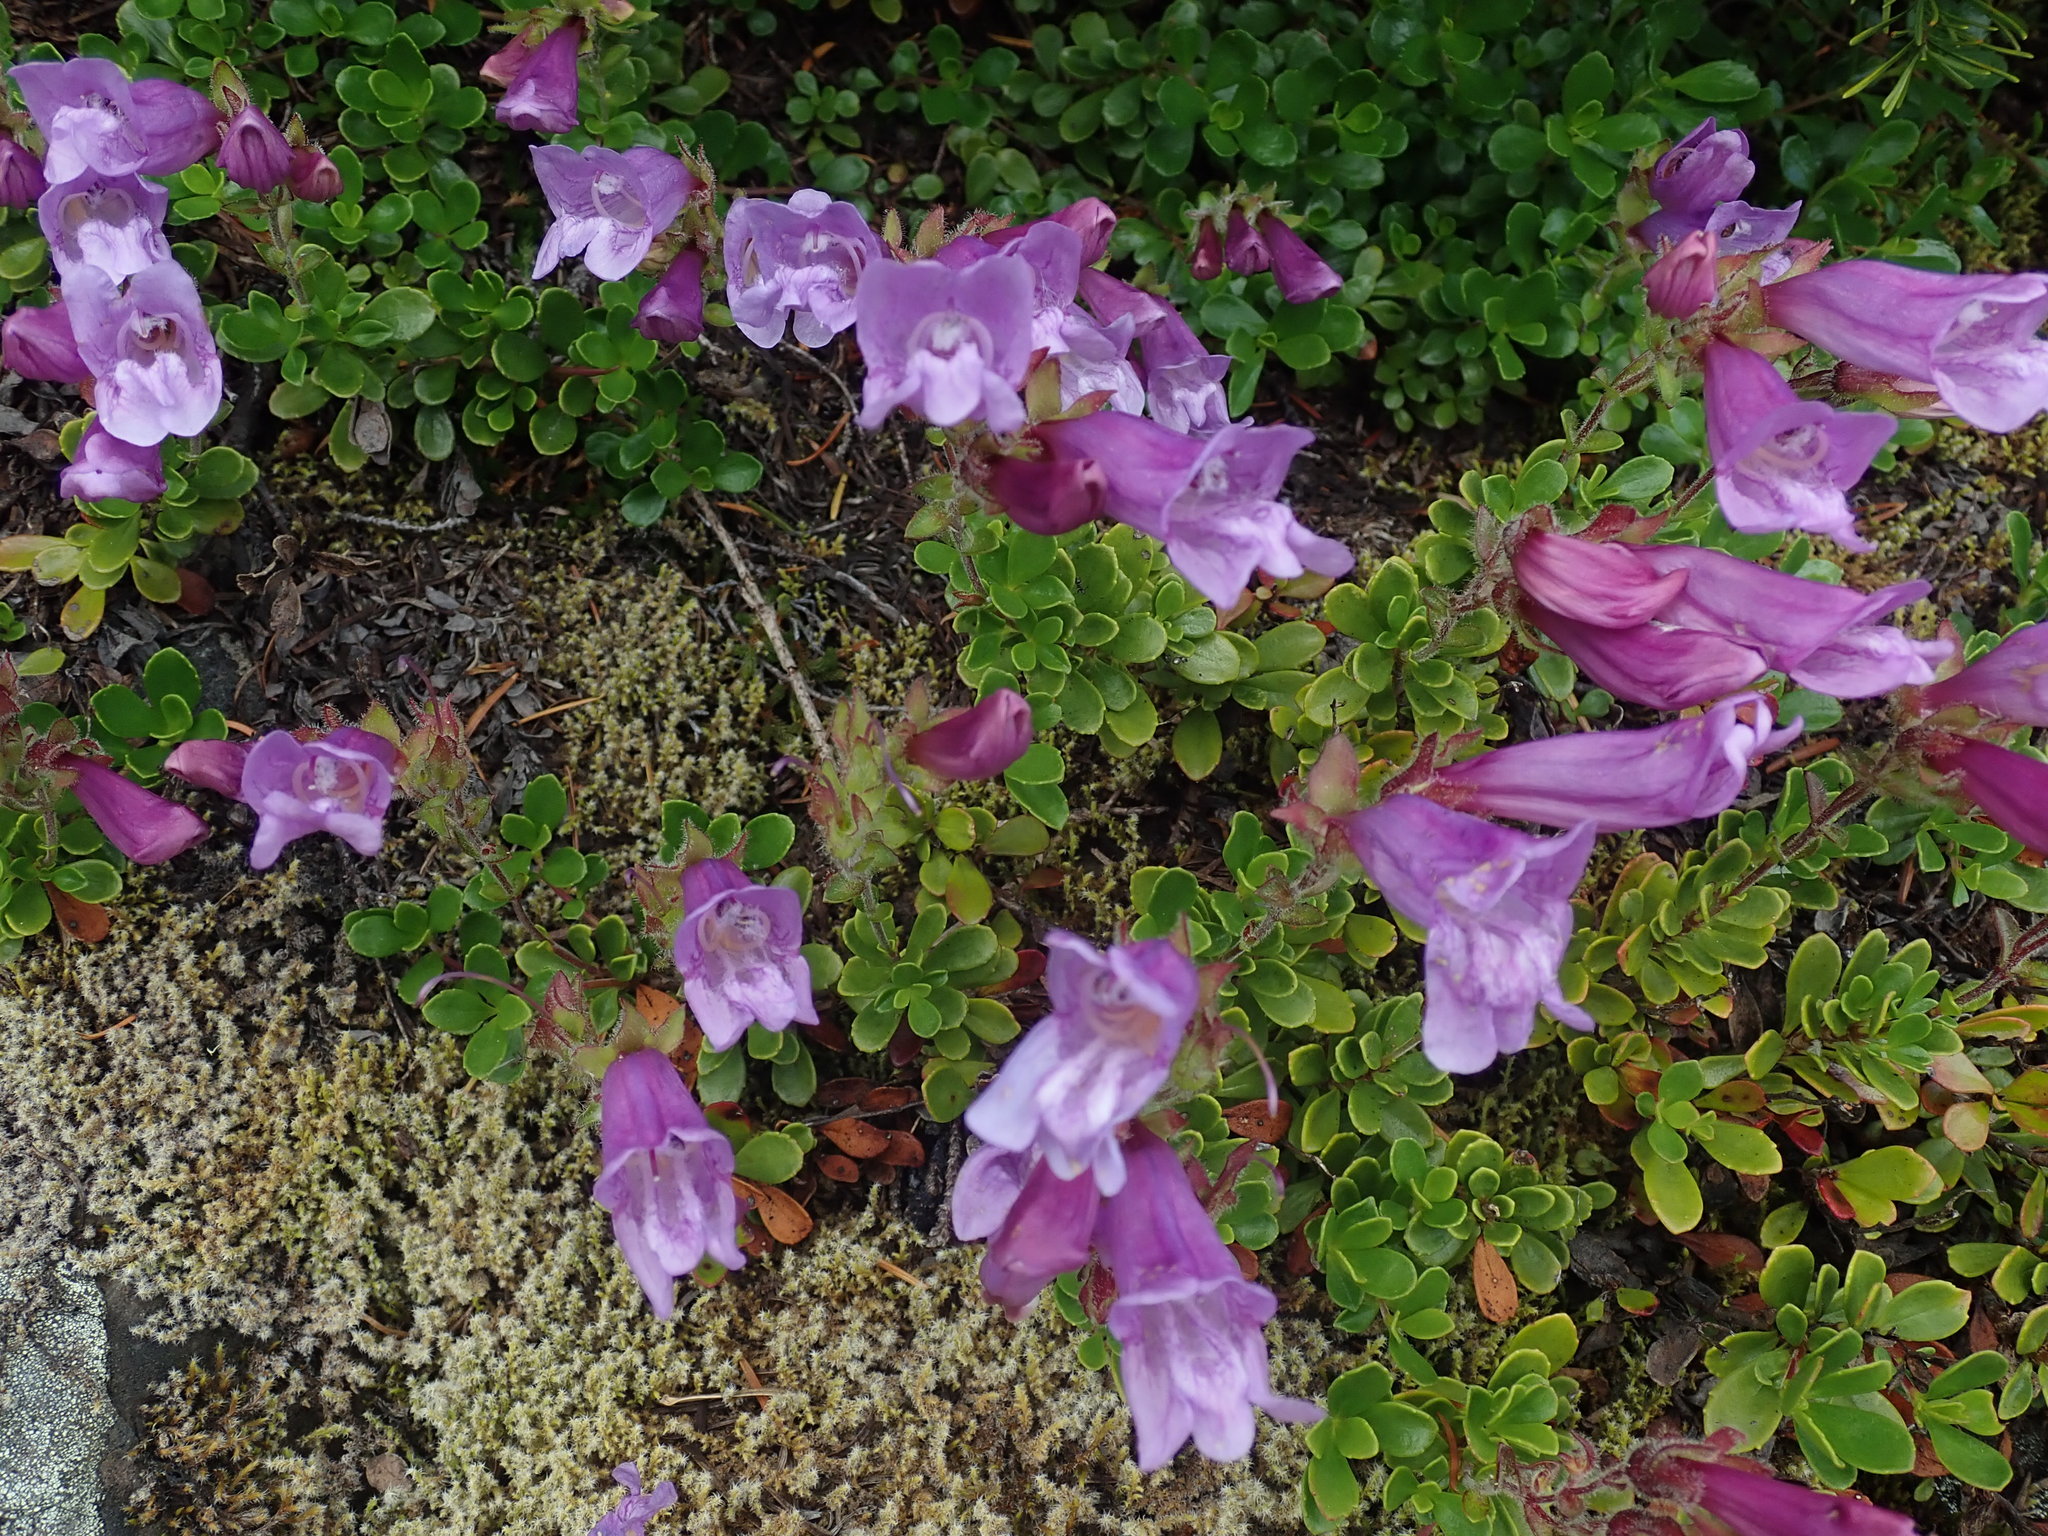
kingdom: Plantae
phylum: Tracheophyta
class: Magnoliopsida
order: Lamiales
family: Plantaginaceae
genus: Penstemon
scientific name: Penstemon davidsonii
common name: Davidson's penstemon
